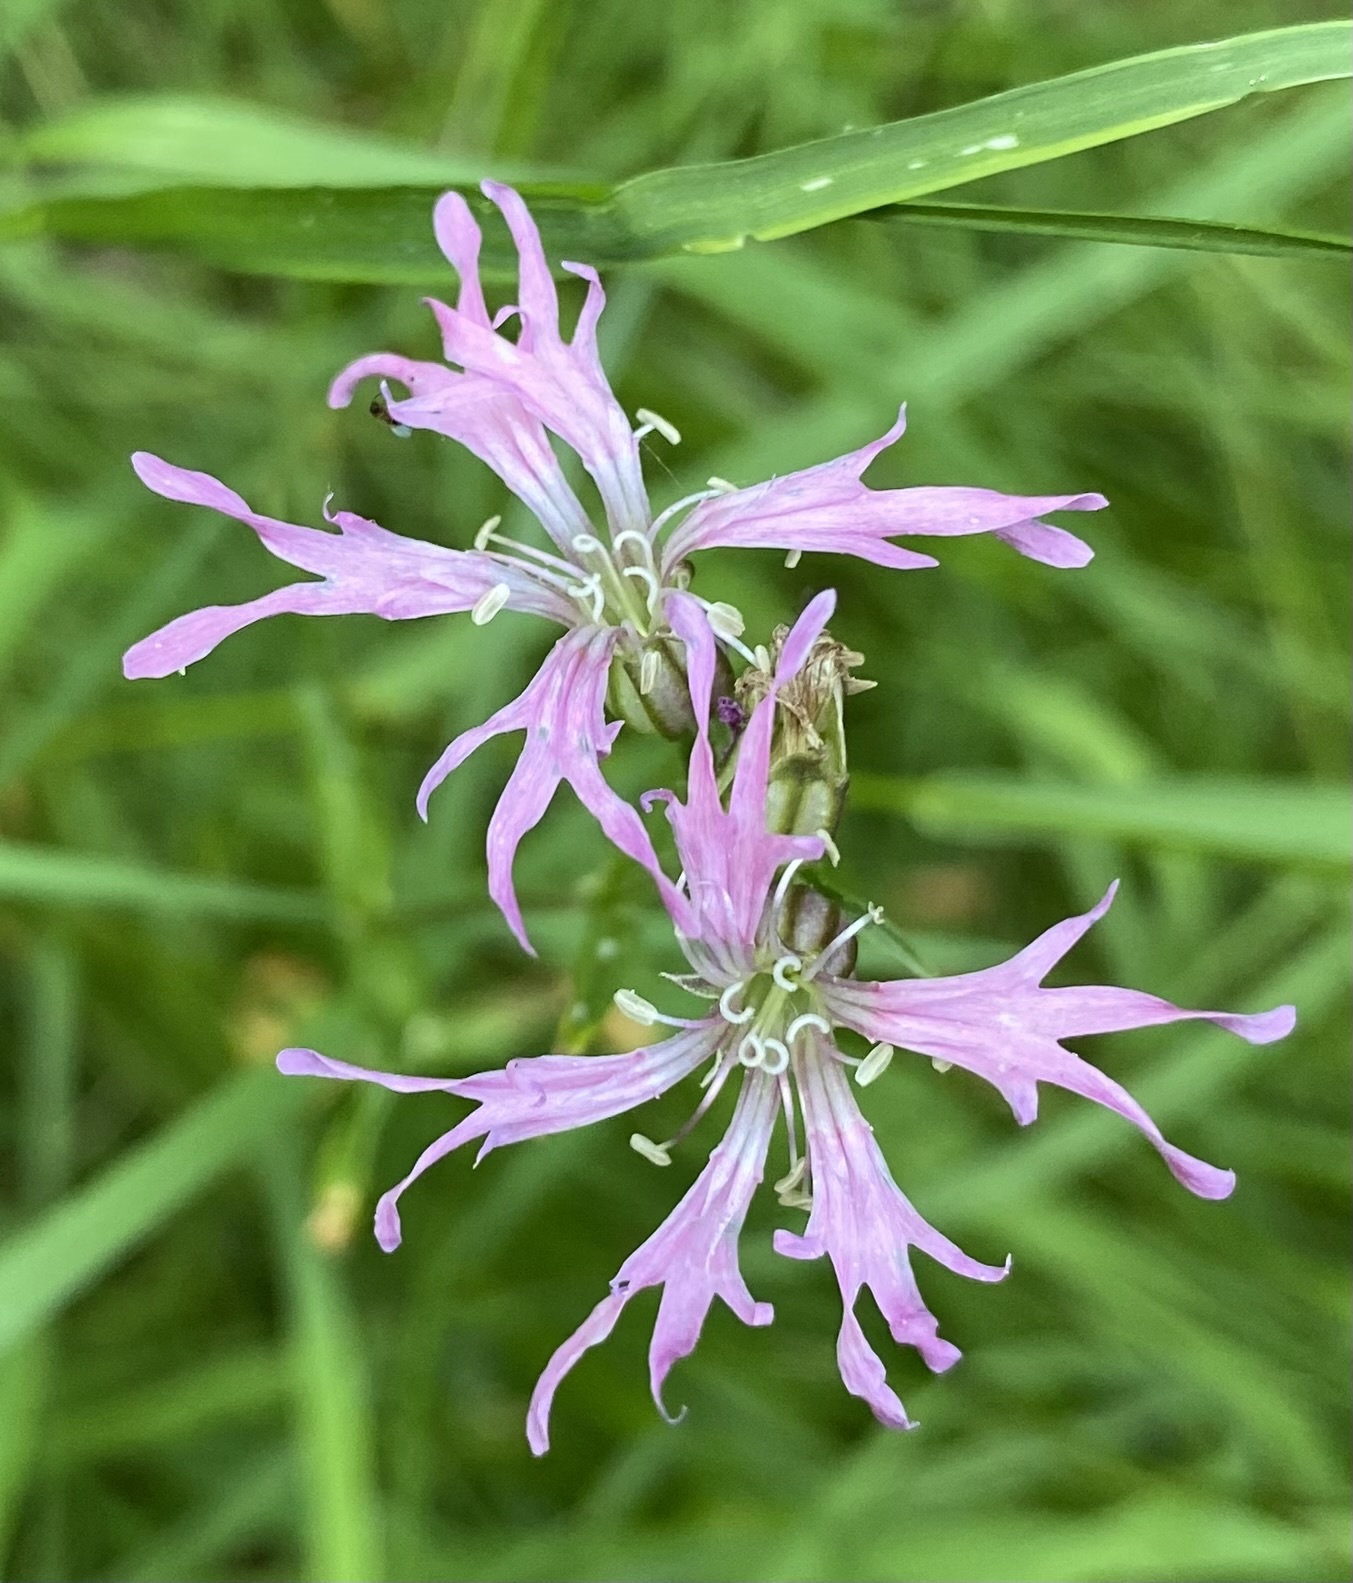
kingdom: Plantae
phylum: Tracheophyta
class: Magnoliopsida
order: Caryophyllales
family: Caryophyllaceae
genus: Silene
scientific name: Silene flos-cuculi
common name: Ragged-robin
